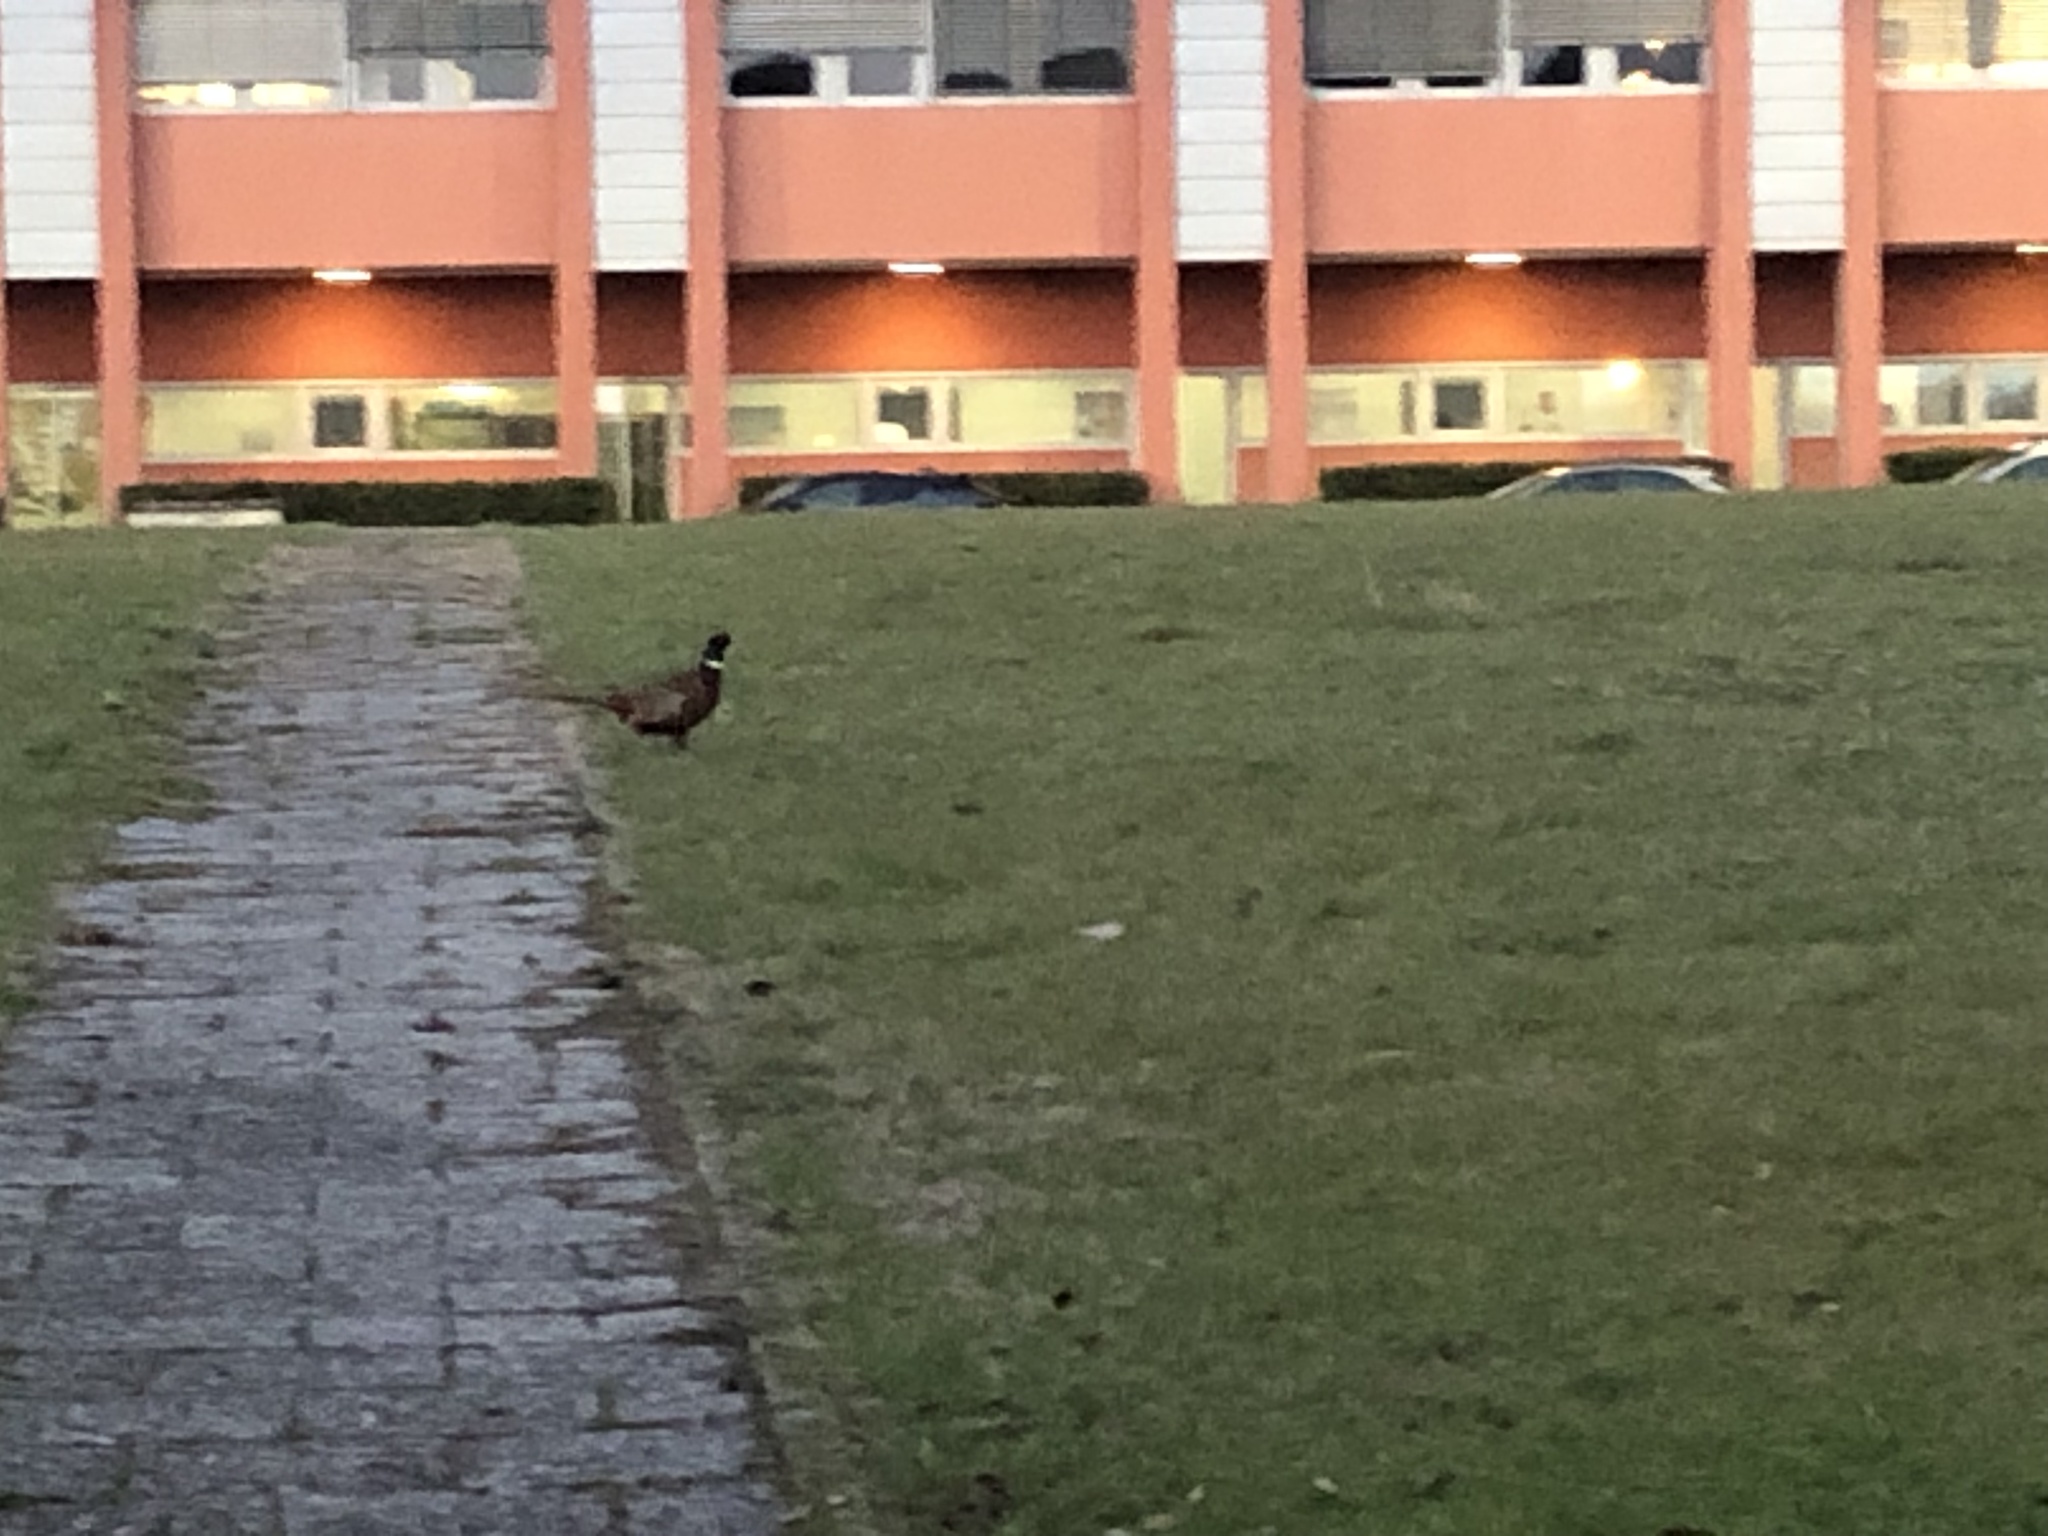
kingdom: Animalia
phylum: Chordata
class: Aves
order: Galliformes
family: Phasianidae
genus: Phasianus
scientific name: Phasianus colchicus
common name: Common pheasant
